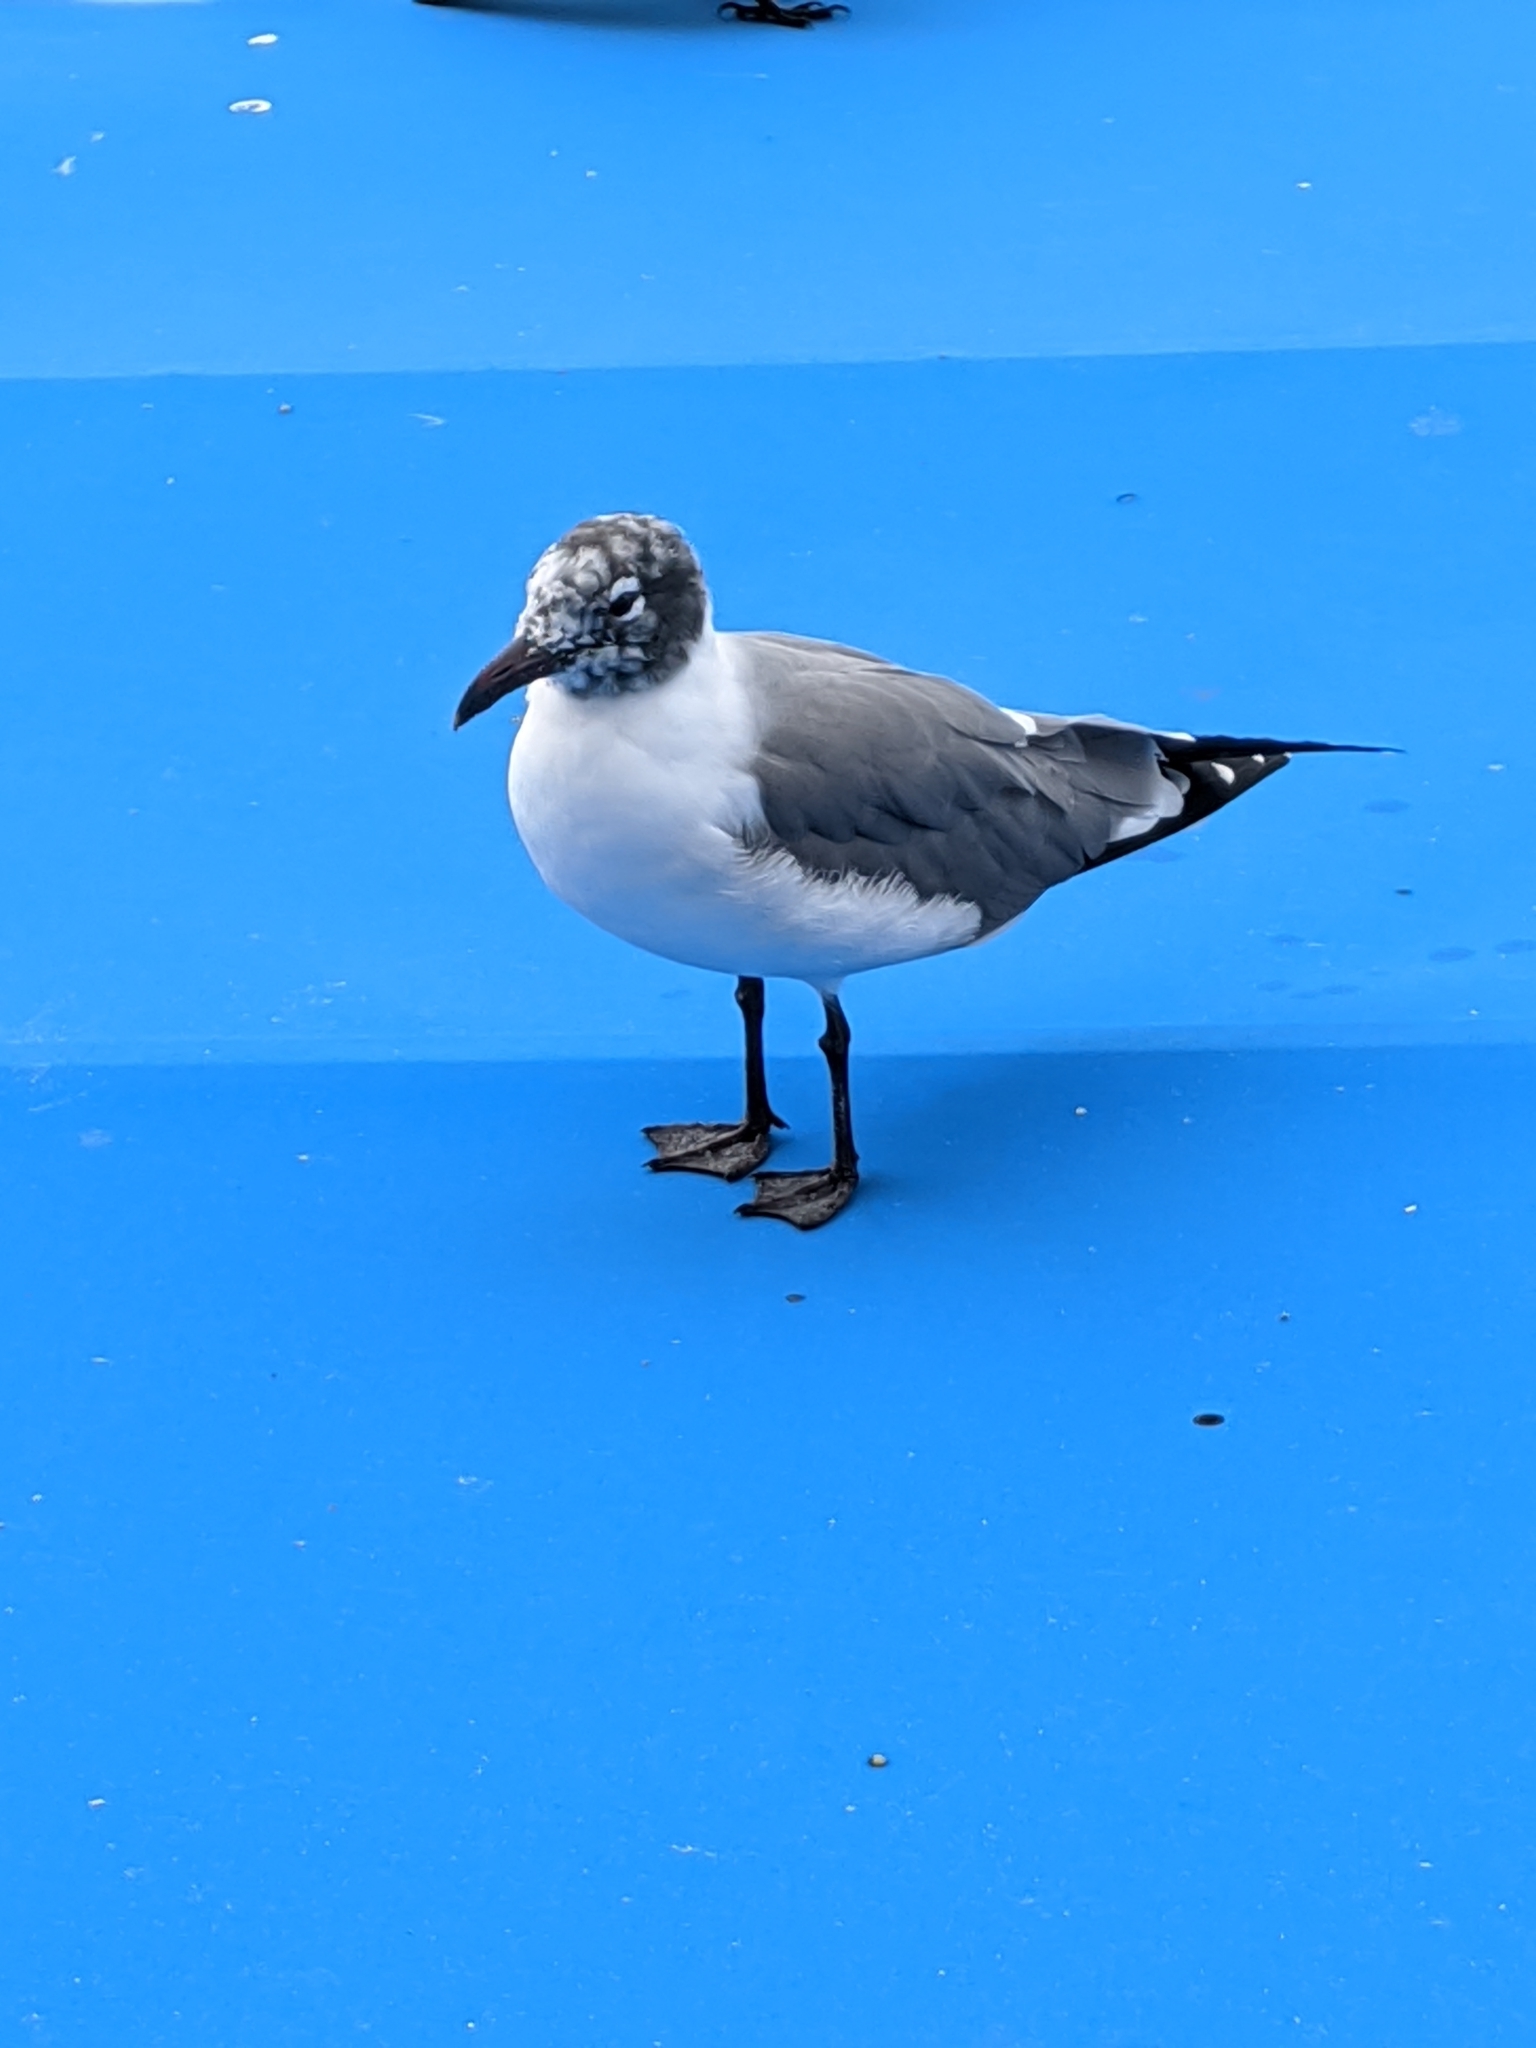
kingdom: Animalia
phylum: Chordata
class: Aves
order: Charadriiformes
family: Laridae
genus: Leucophaeus
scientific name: Leucophaeus atricilla
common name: Laughing gull
